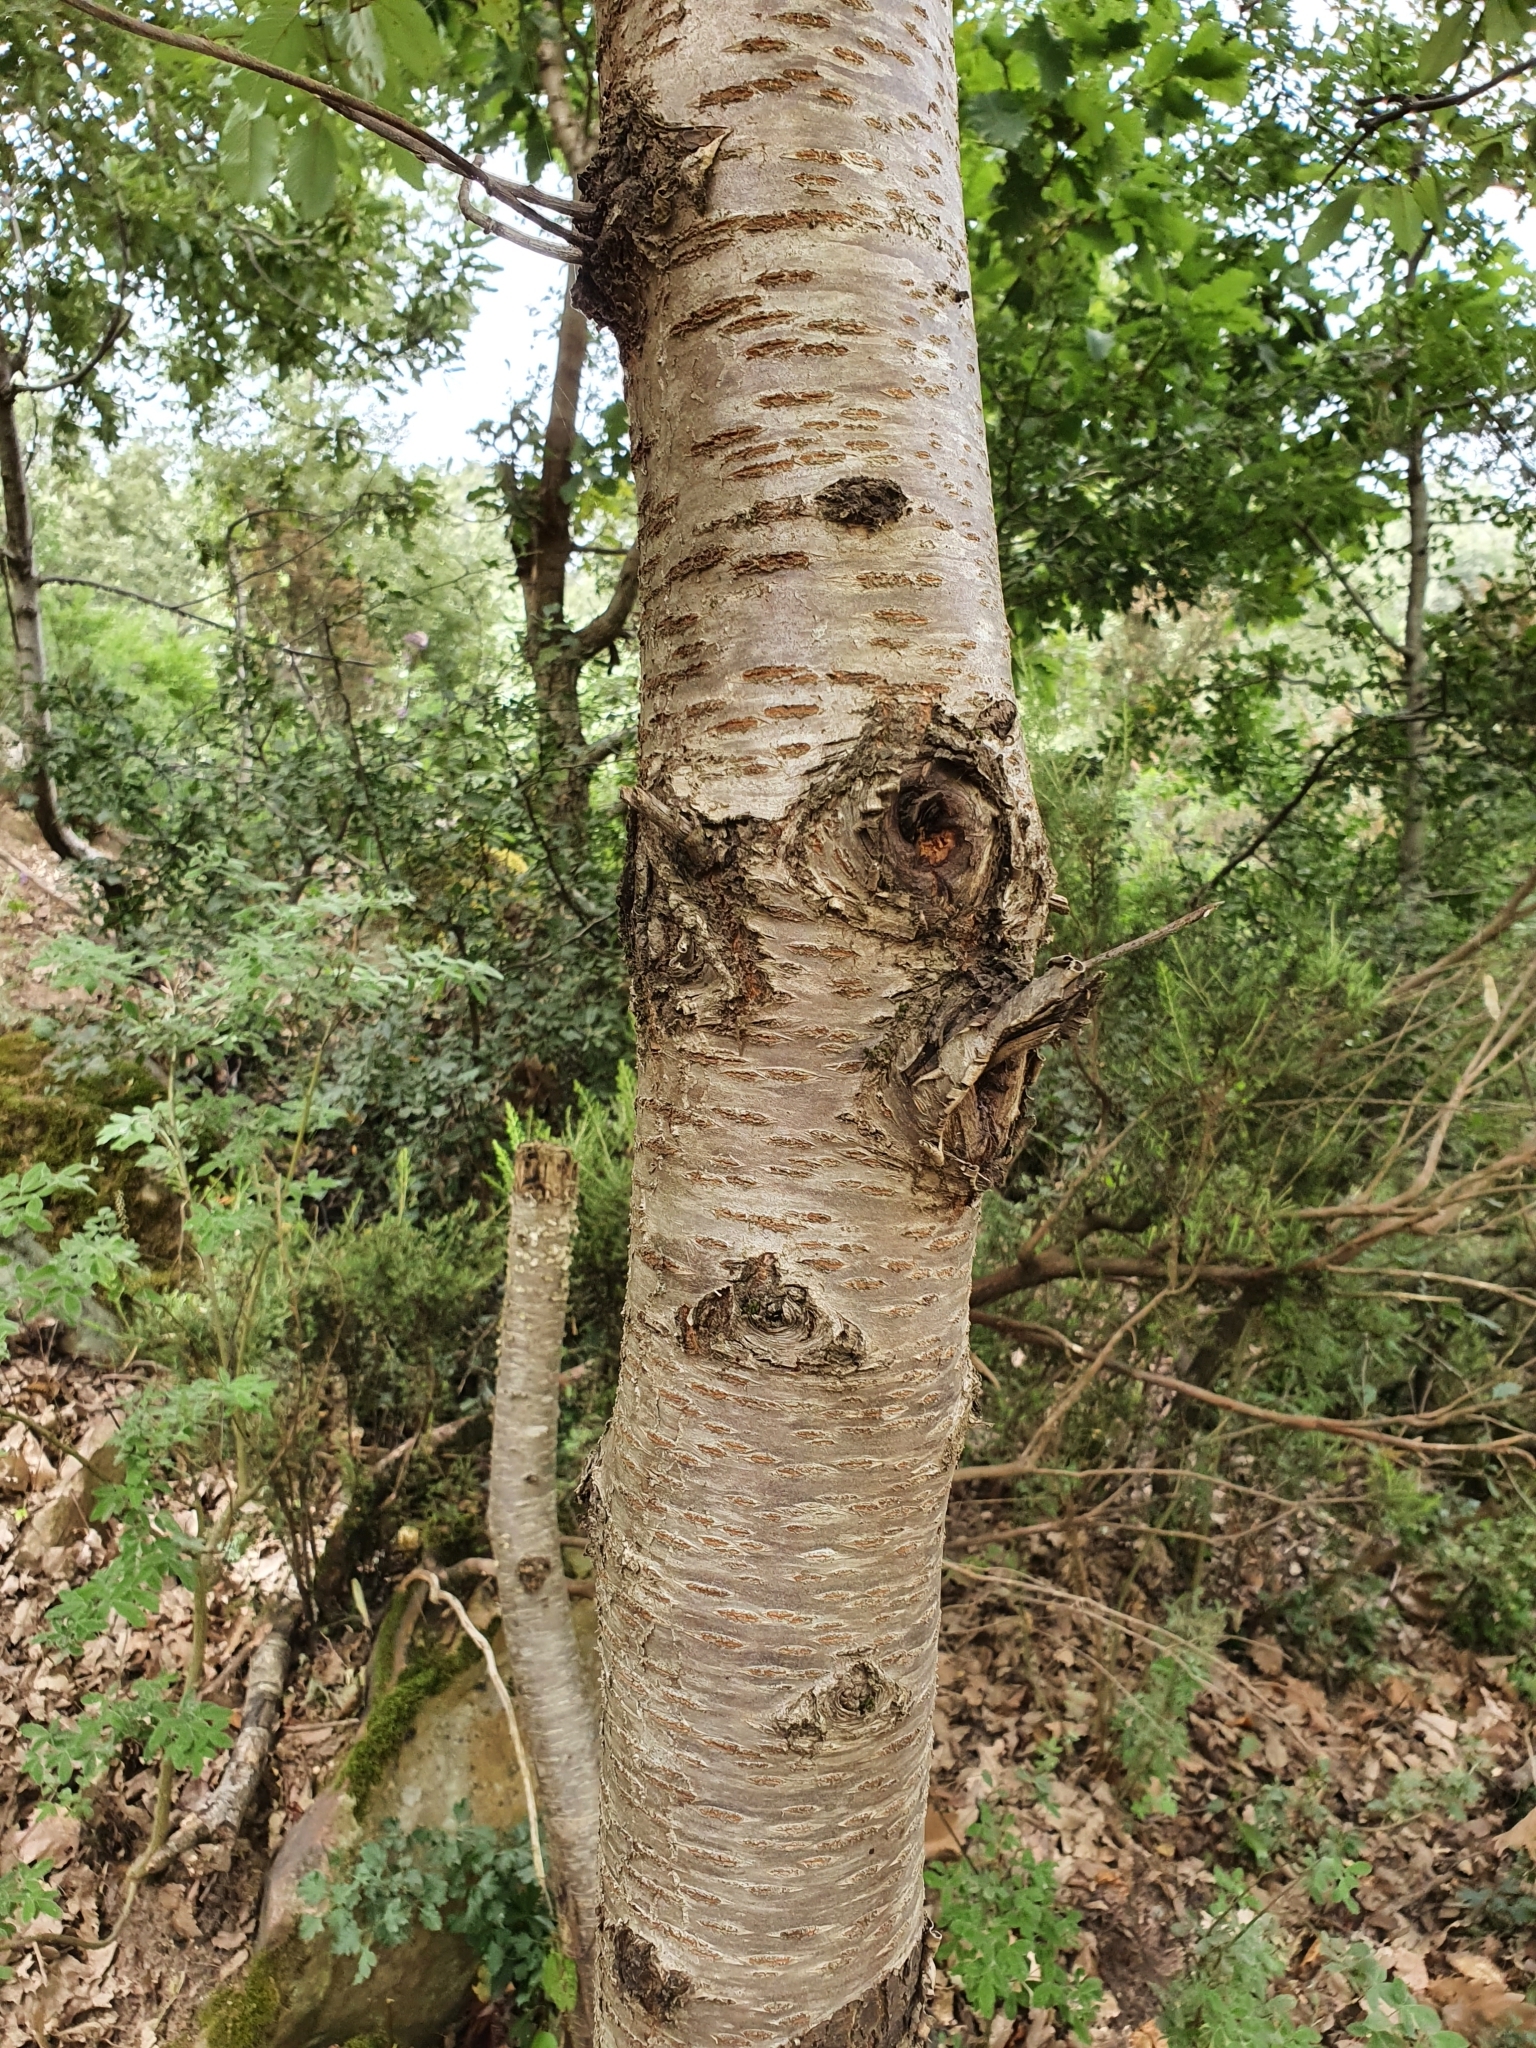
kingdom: Plantae
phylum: Tracheophyta
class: Magnoliopsida
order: Rosales
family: Rosaceae
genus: Prunus
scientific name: Prunus avium
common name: Sweet cherry
